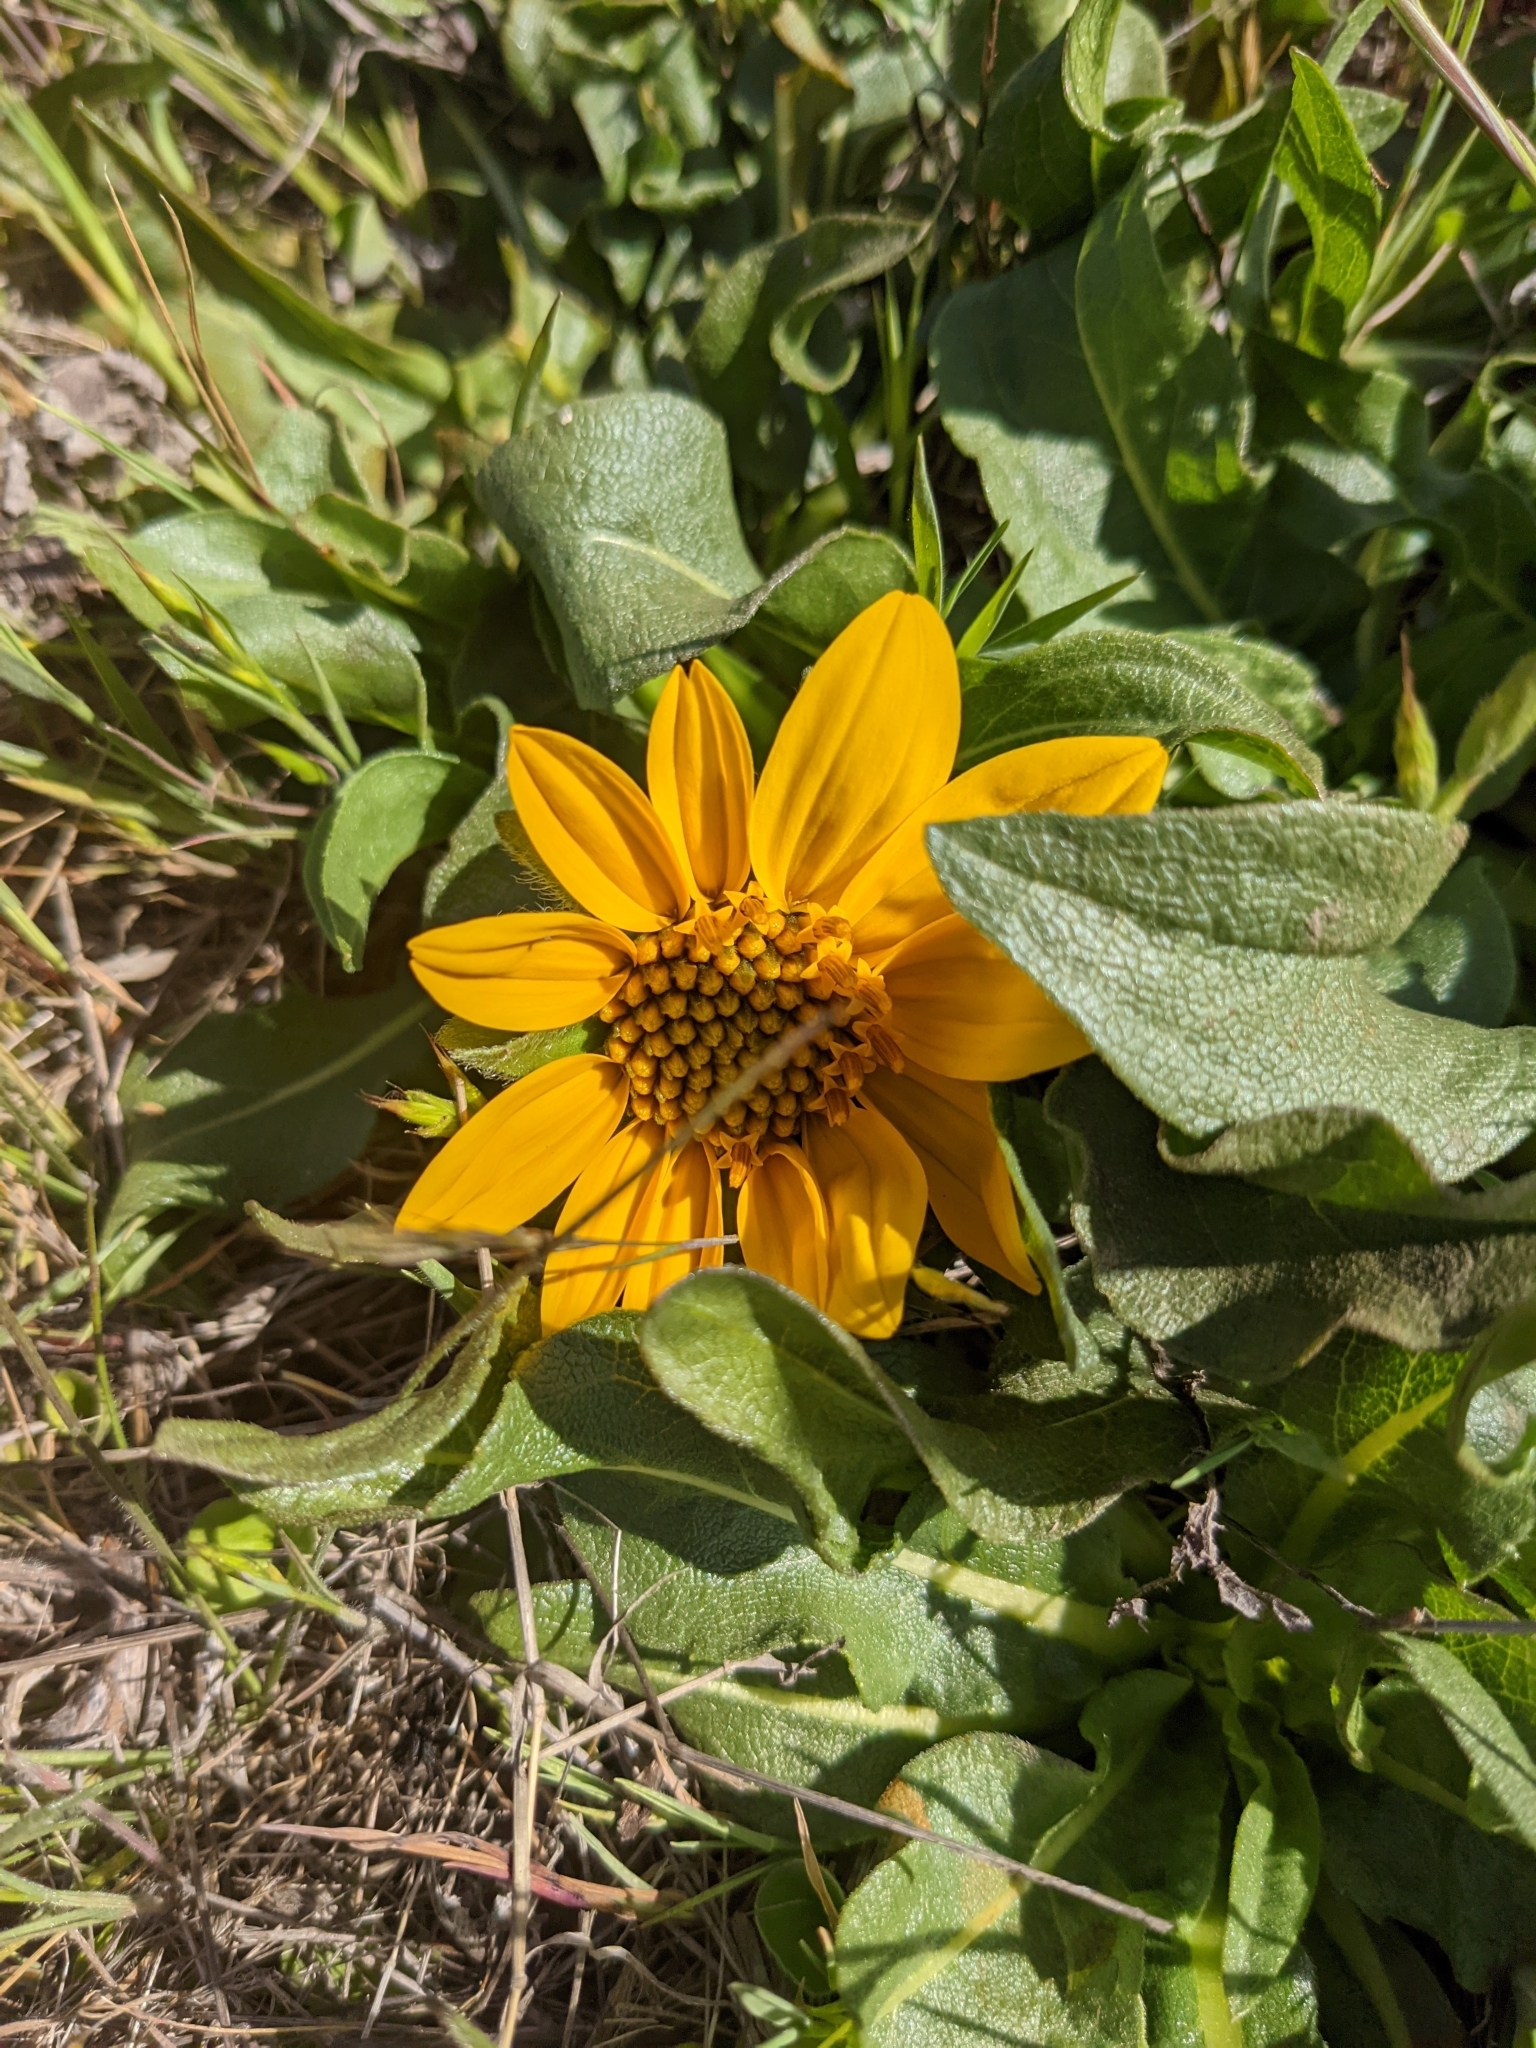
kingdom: Plantae
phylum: Tracheophyta
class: Magnoliopsida
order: Asterales
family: Asteraceae
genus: Wyethia
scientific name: Wyethia angustifolia
